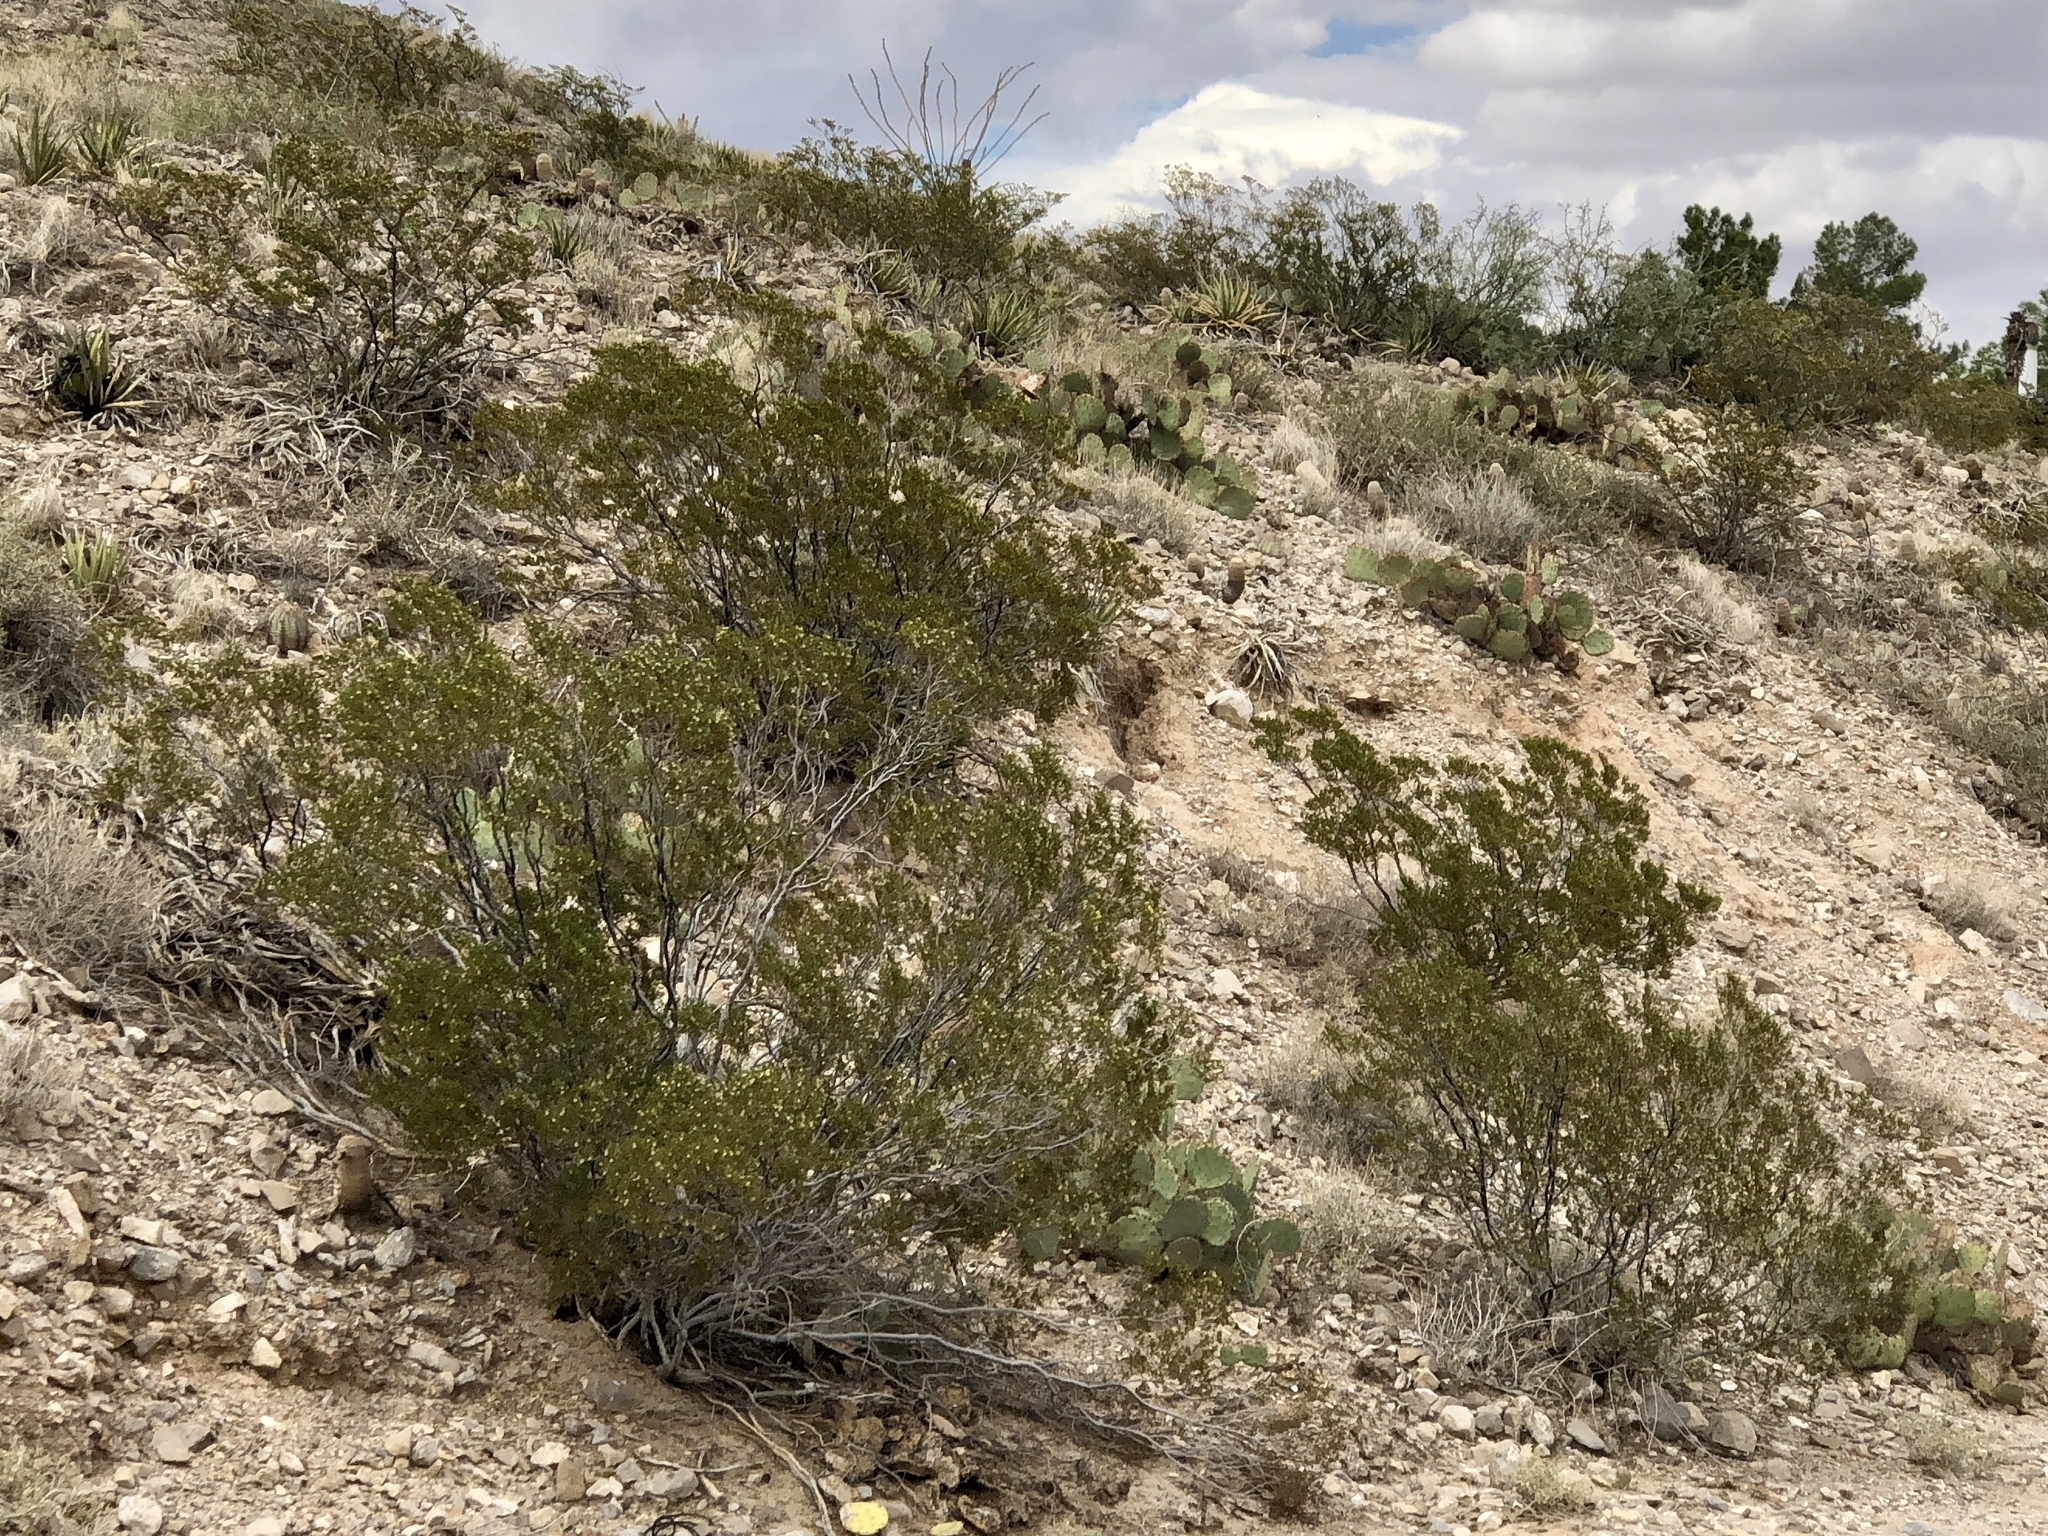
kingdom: Plantae
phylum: Tracheophyta
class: Magnoliopsida
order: Zygophyllales
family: Zygophyllaceae
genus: Larrea
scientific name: Larrea tridentata
